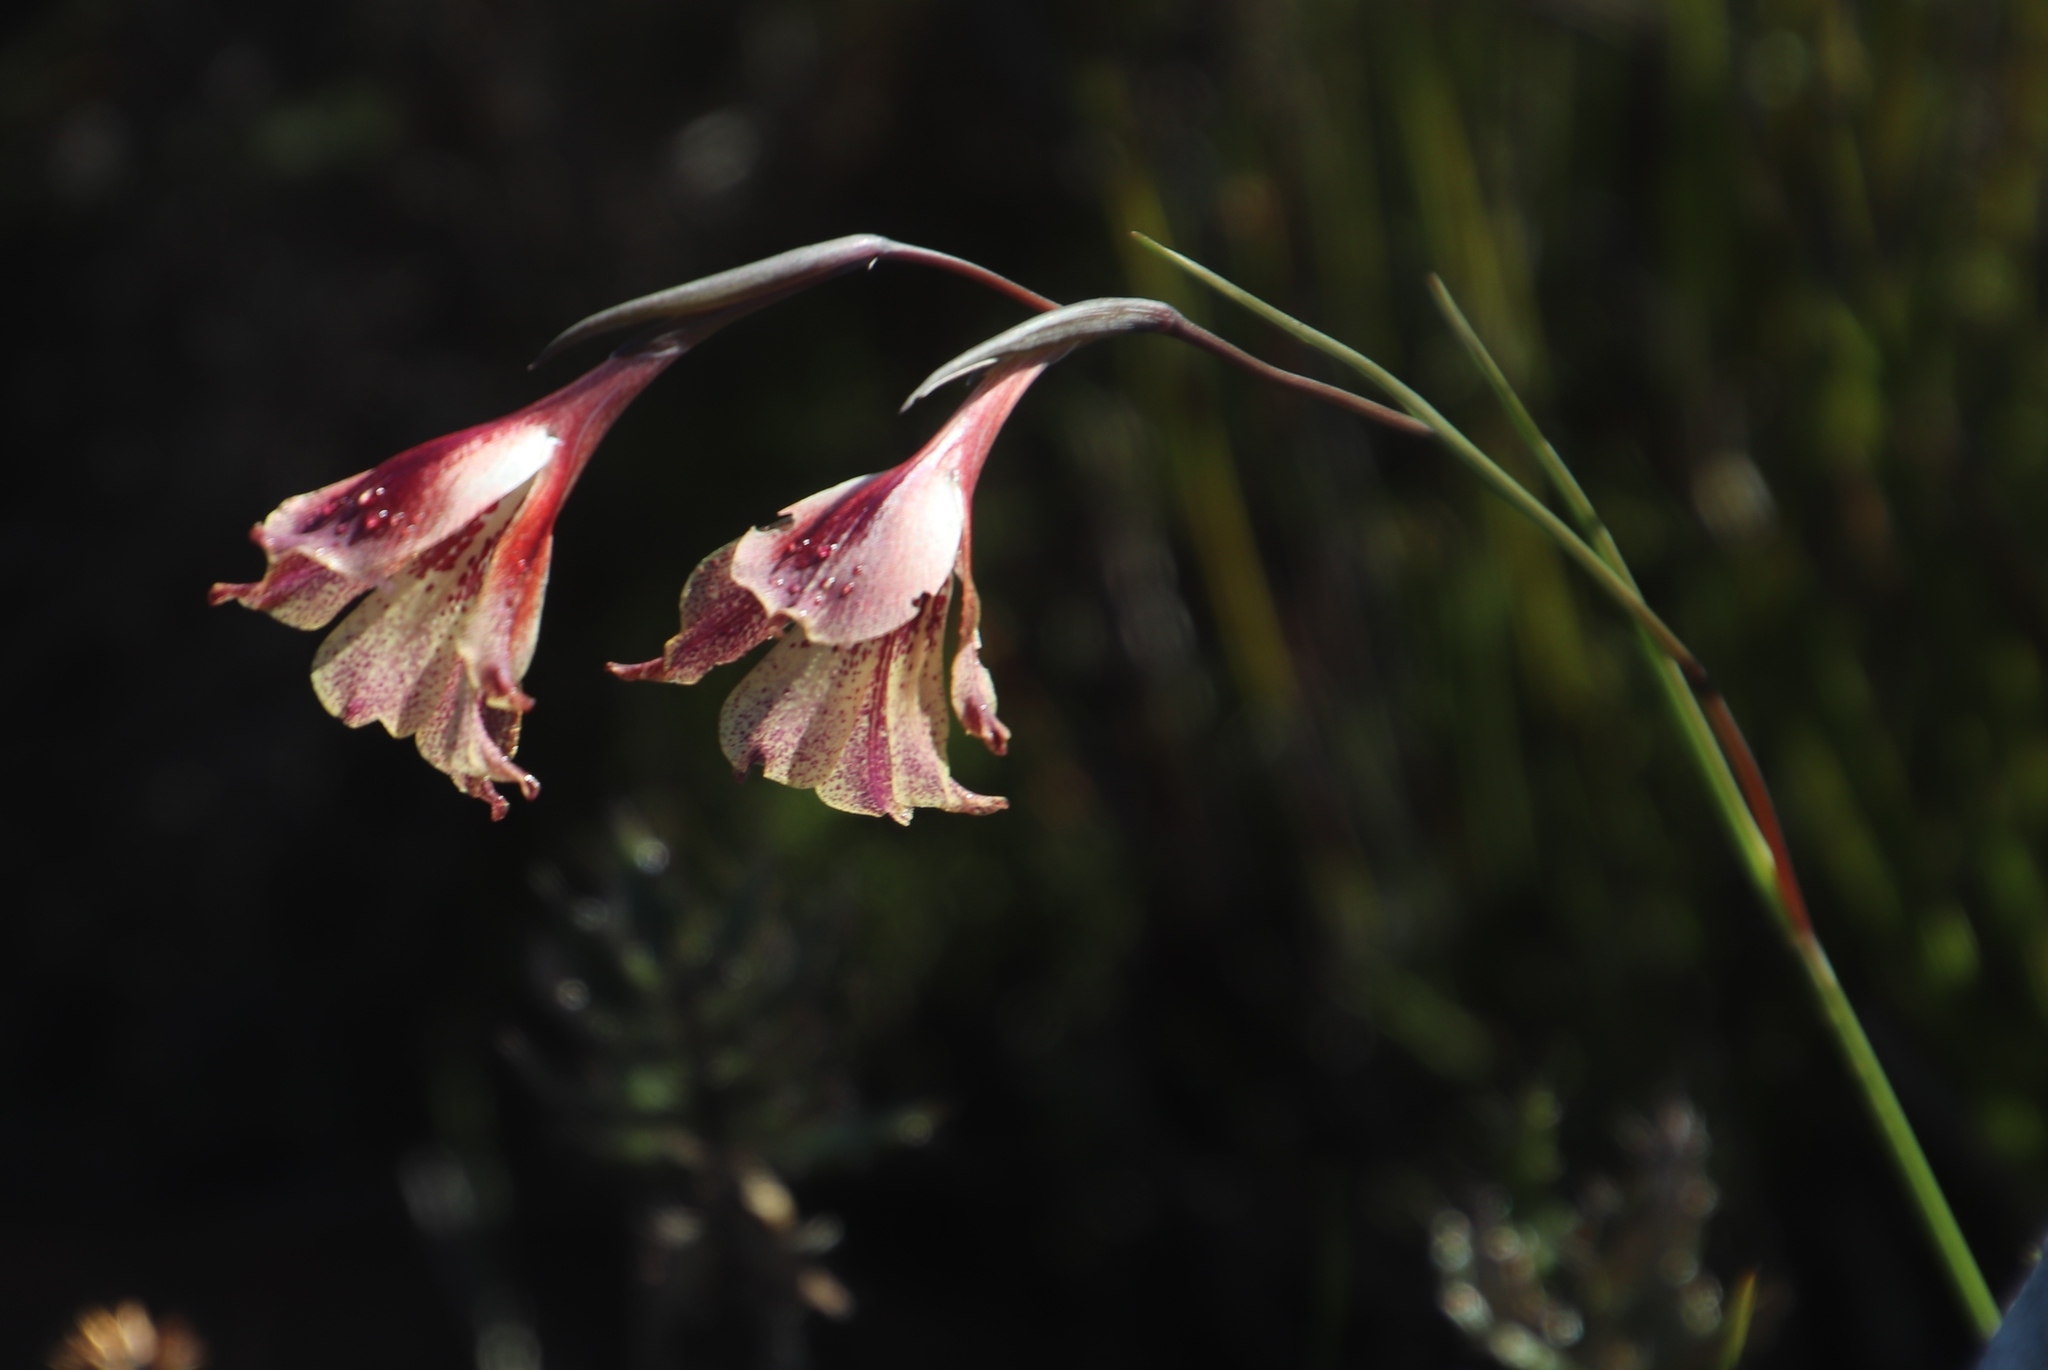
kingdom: Plantae
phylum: Tracheophyta
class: Liliopsida
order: Asparagales
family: Iridaceae
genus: Gladiolus
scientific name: Gladiolus maculatus
